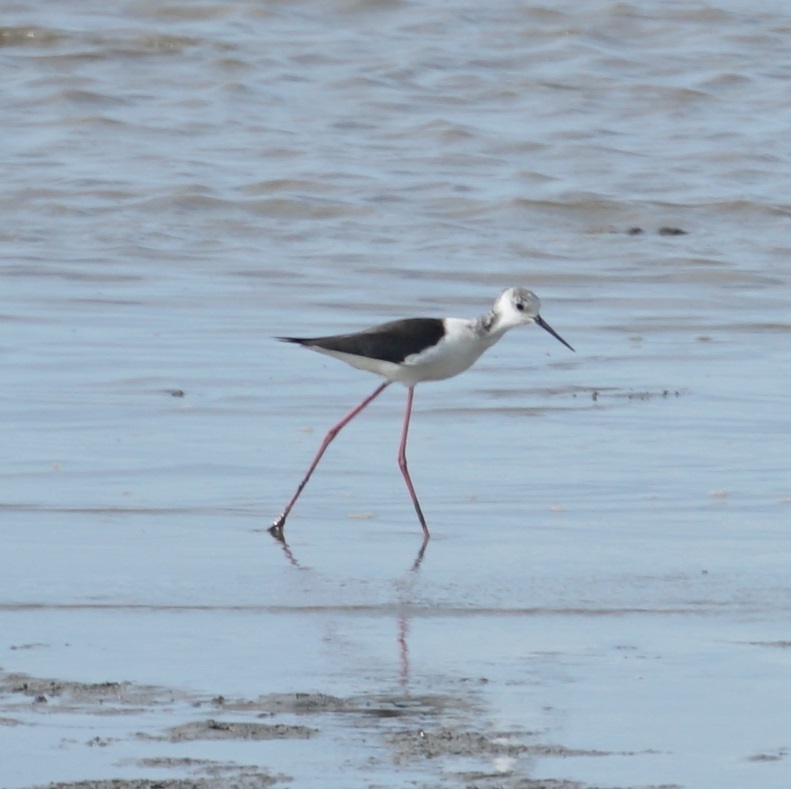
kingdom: Animalia
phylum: Chordata
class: Aves
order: Charadriiformes
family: Recurvirostridae
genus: Himantopus
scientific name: Himantopus leucocephalus
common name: White-headed stilt
